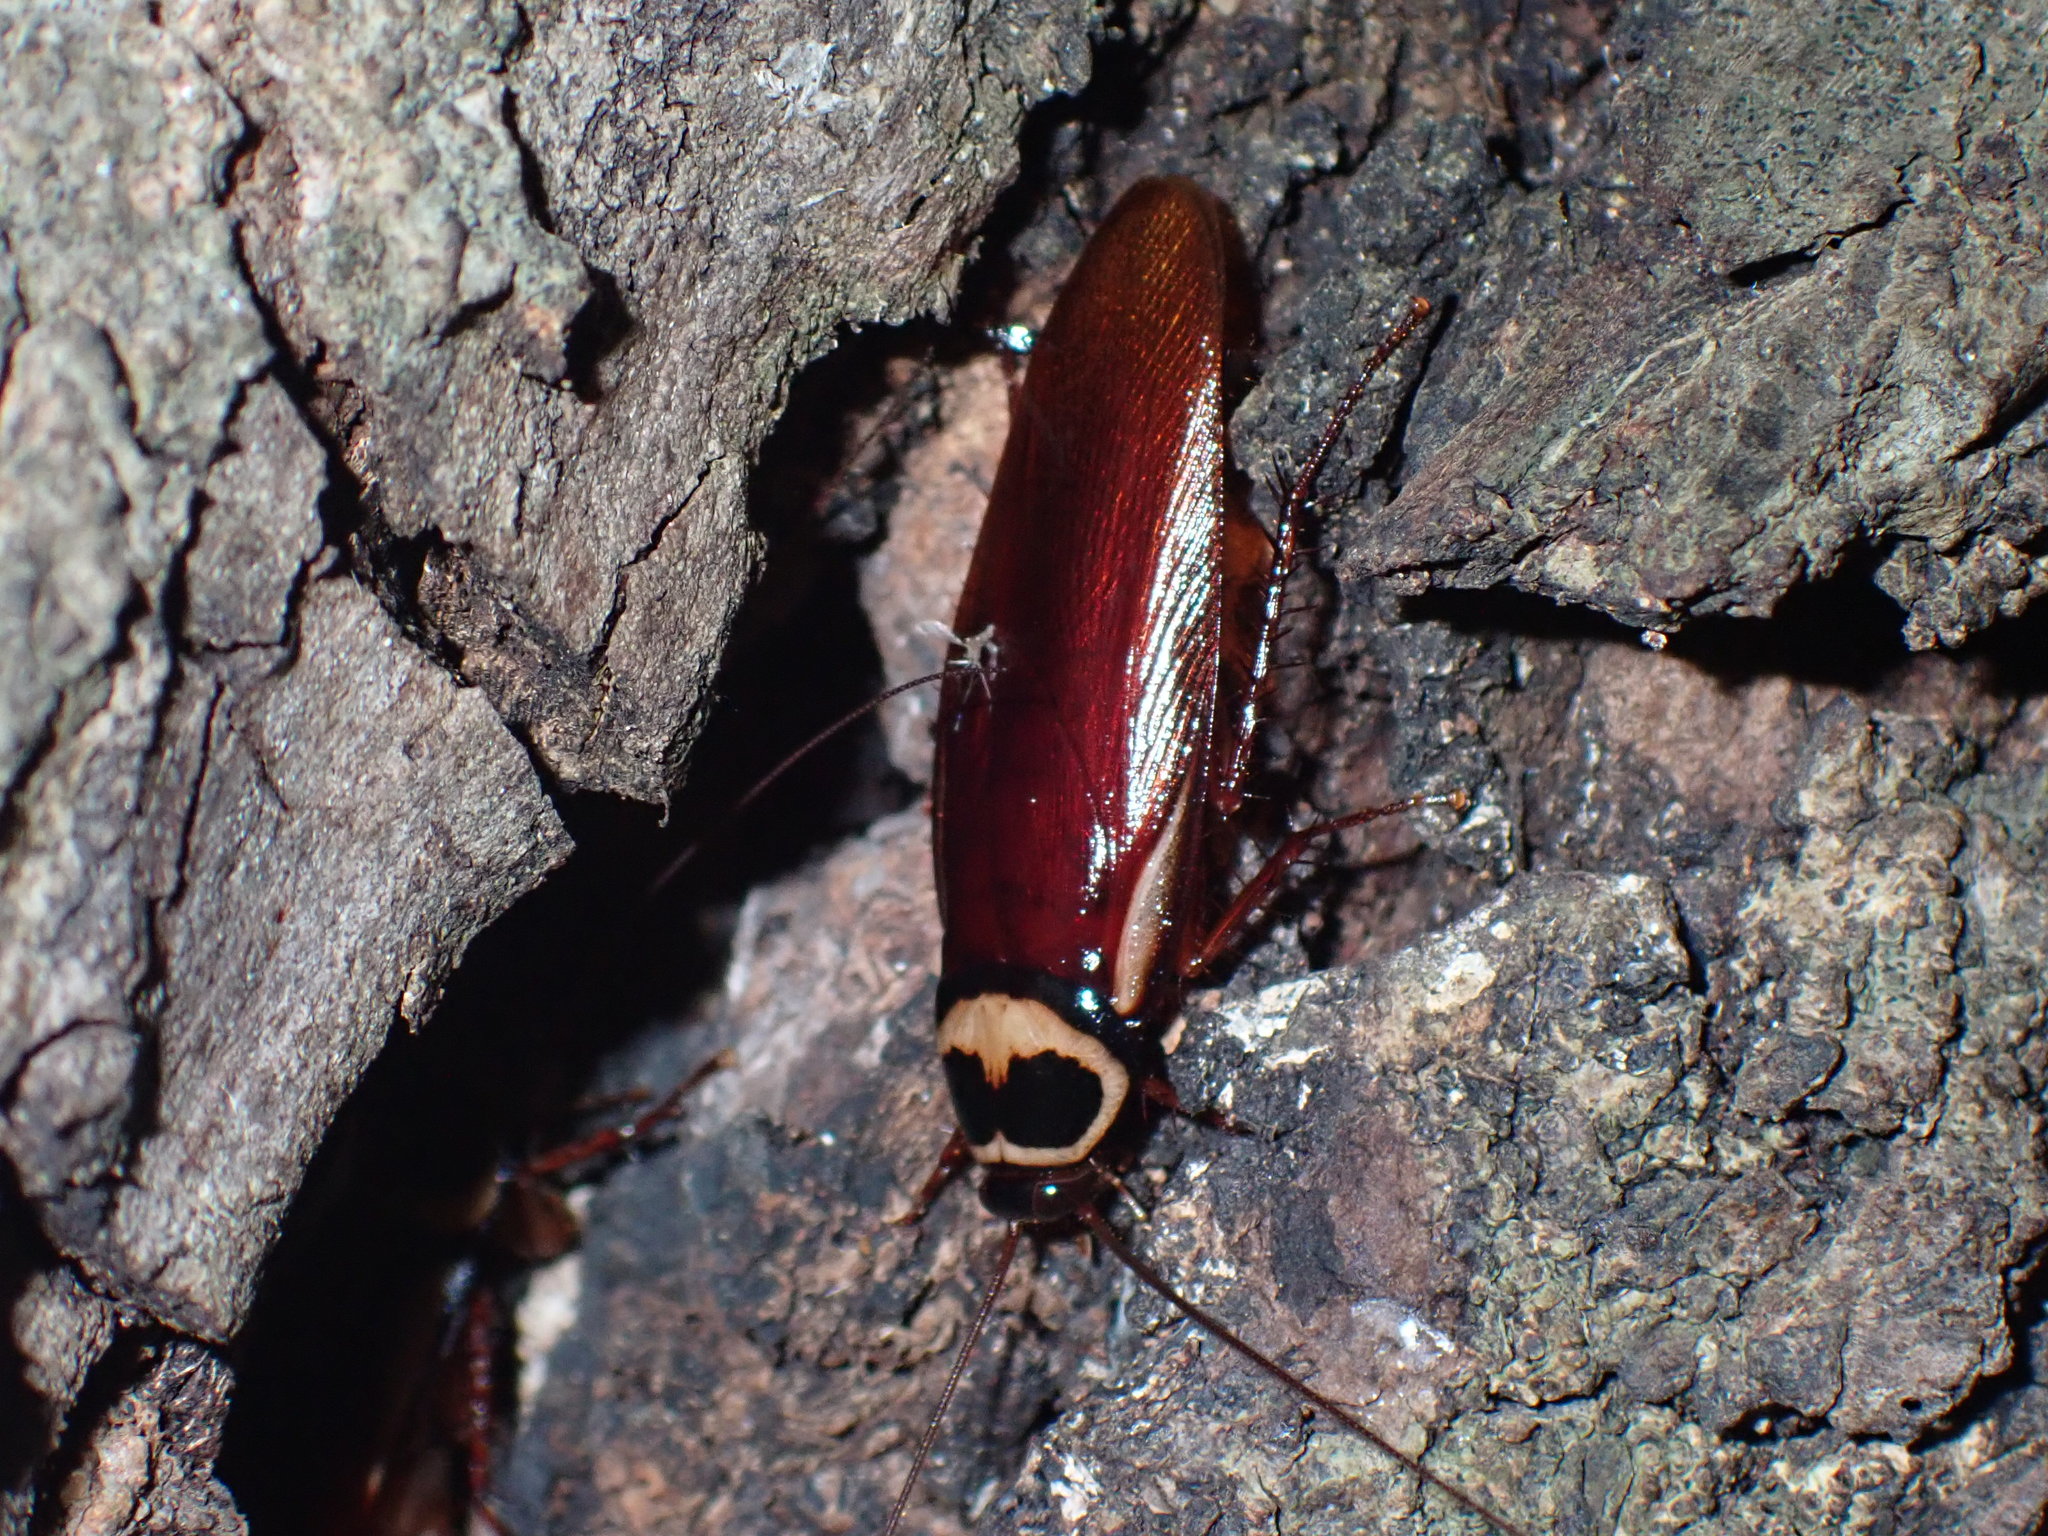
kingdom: Animalia
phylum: Arthropoda
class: Insecta
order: Blattodea
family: Blattidae
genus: Periplaneta
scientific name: Periplaneta australasiae
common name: Australian cockroach
